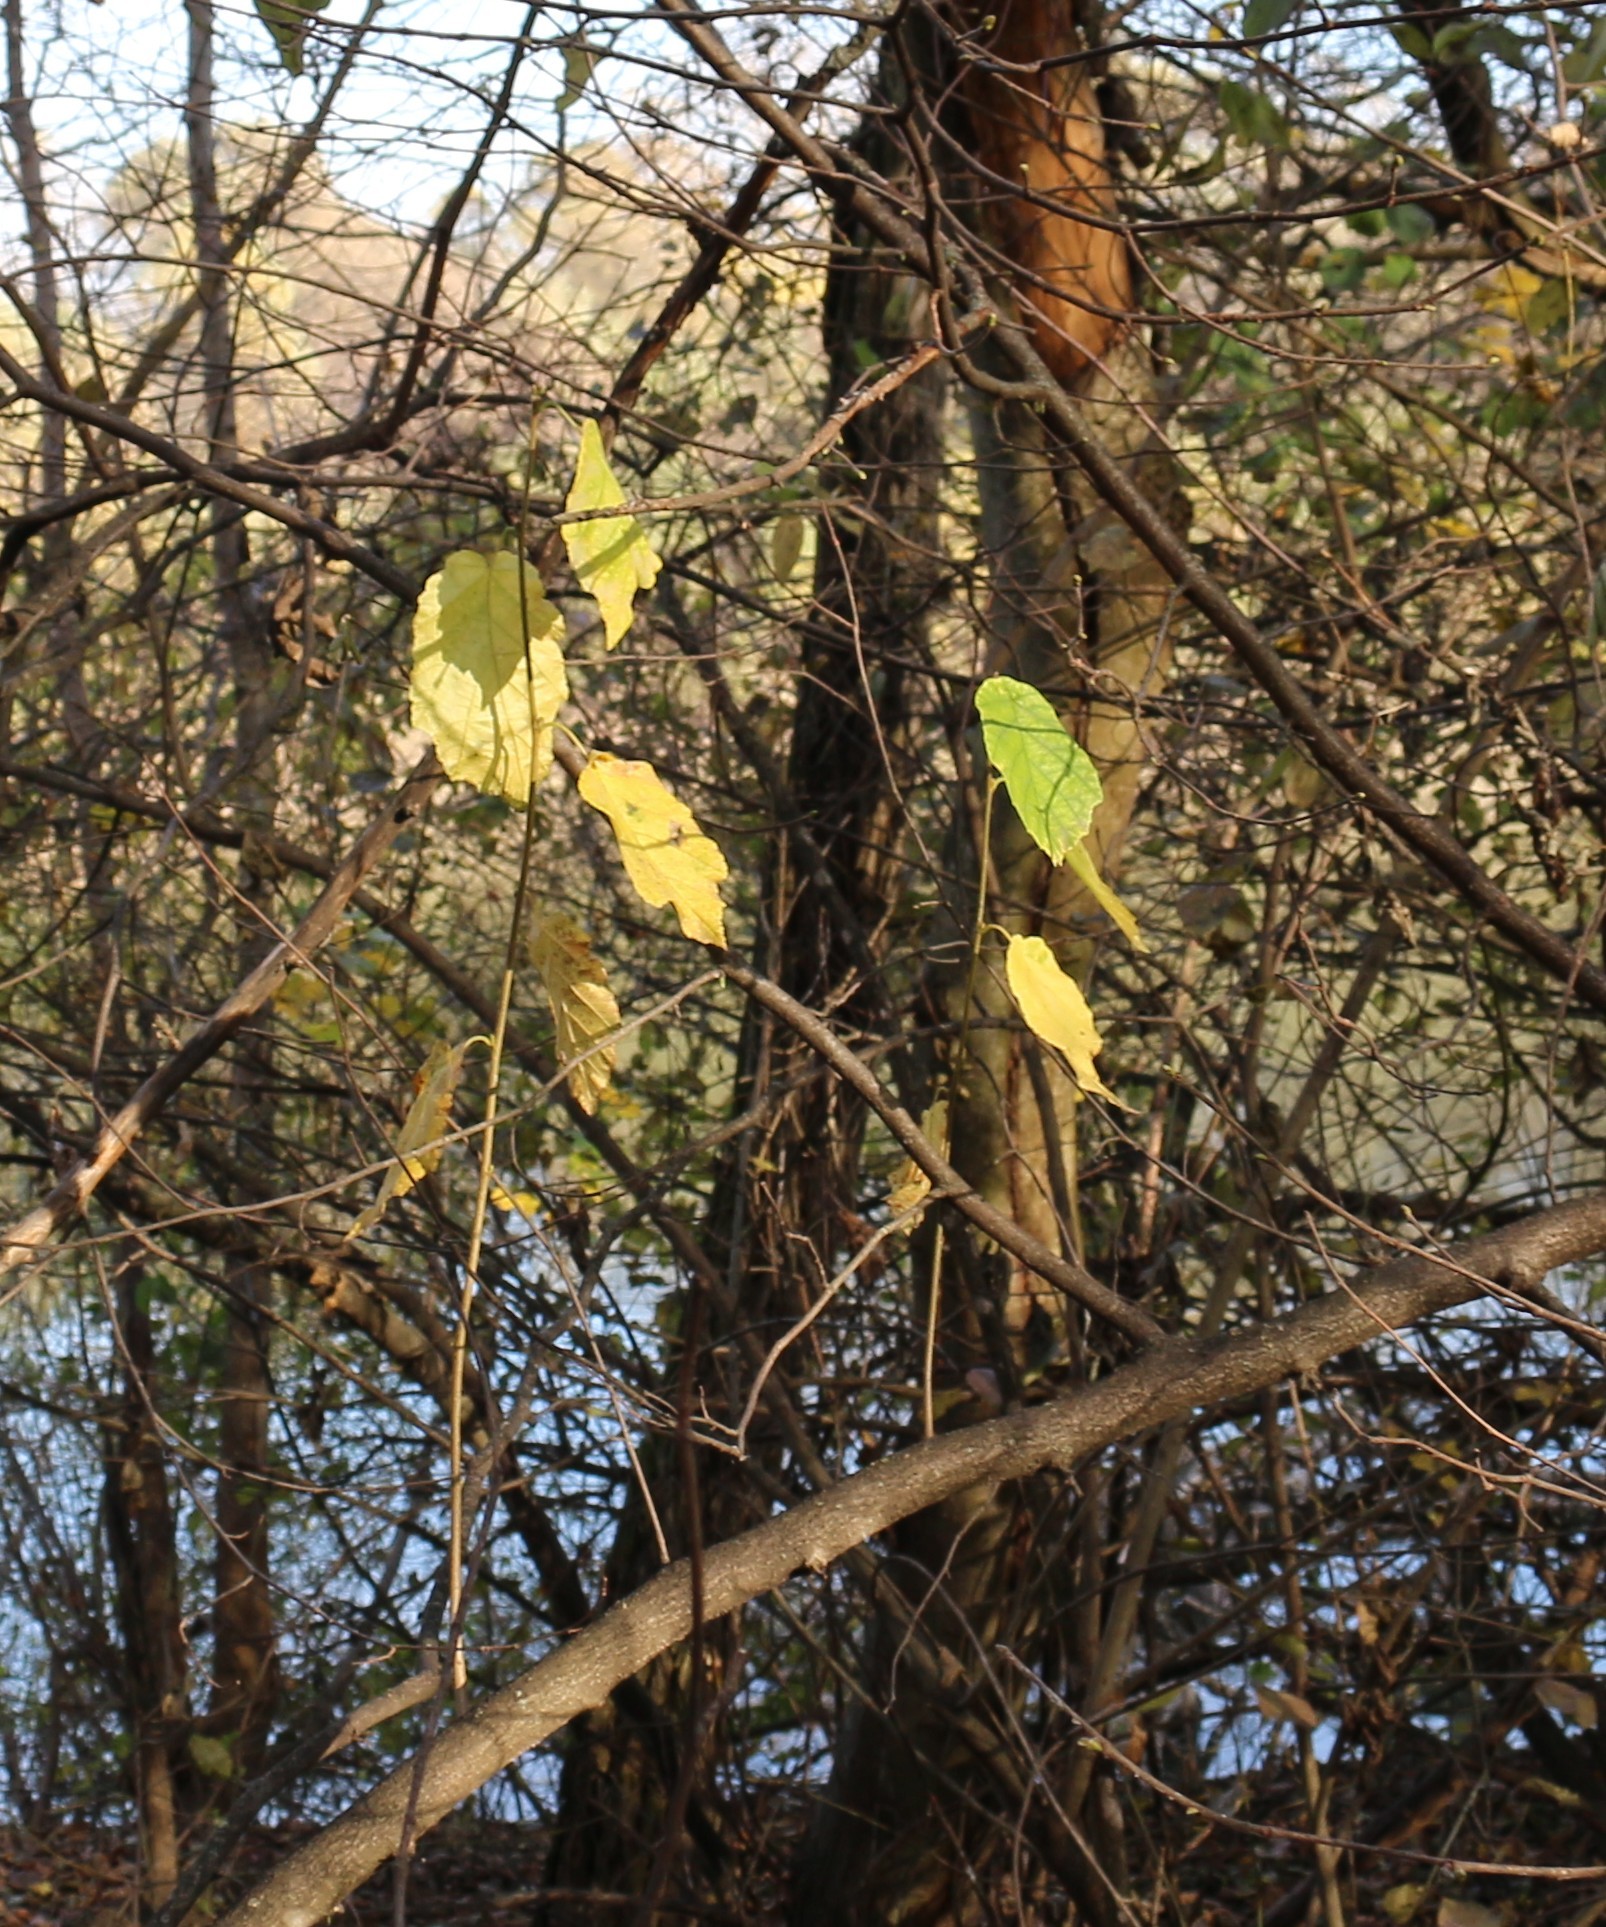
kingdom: Plantae
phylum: Tracheophyta
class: Magnoliopsida
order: Fagales
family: Betulaceae
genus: Corylus
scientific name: Corylus avellana
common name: European hazel
